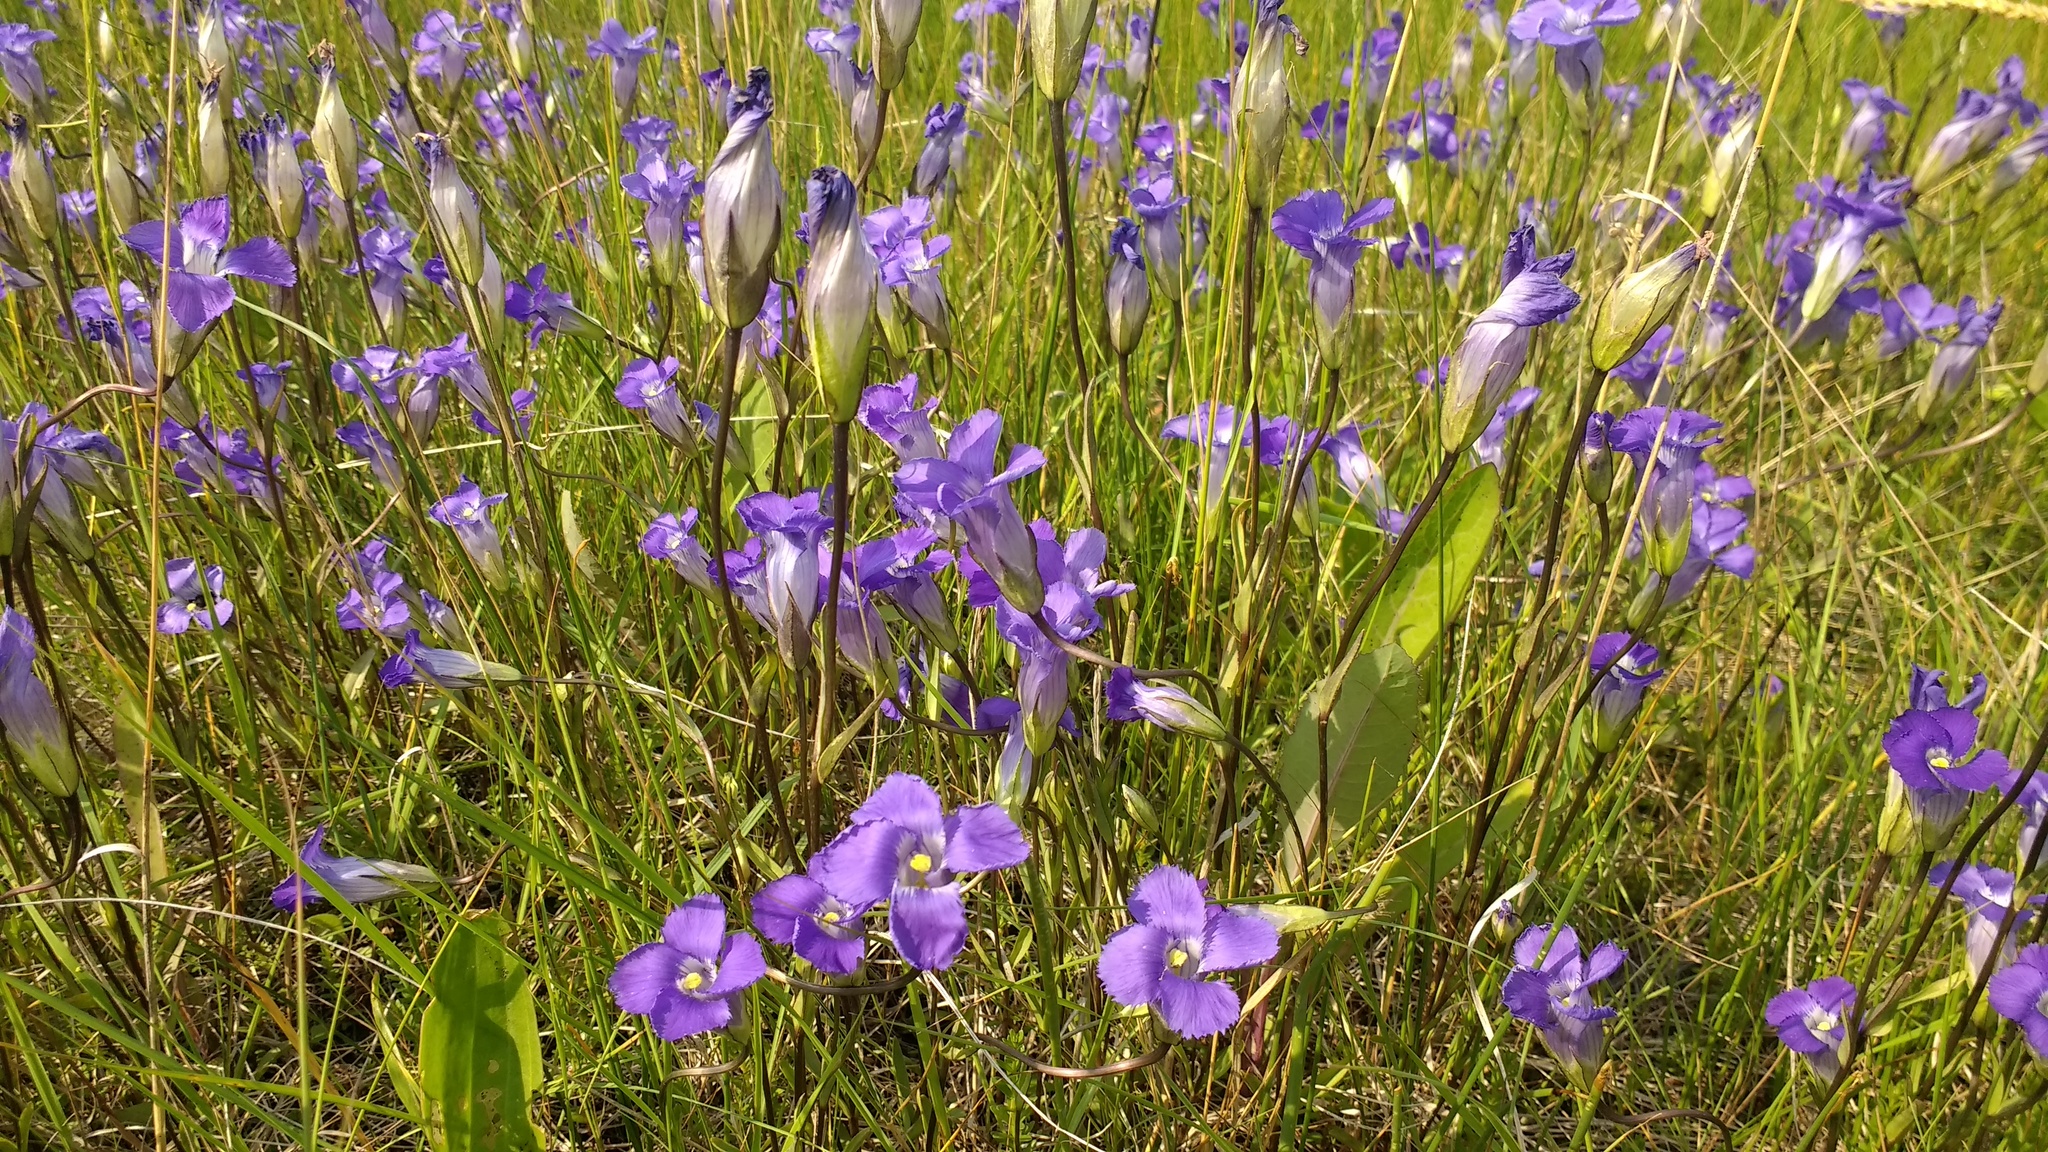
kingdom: Plantae
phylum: Tracheophyta
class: Magnoliopsida
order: Gentianales
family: Gentianaceae
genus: Gentianopsis
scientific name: Gentianopsis macounii
